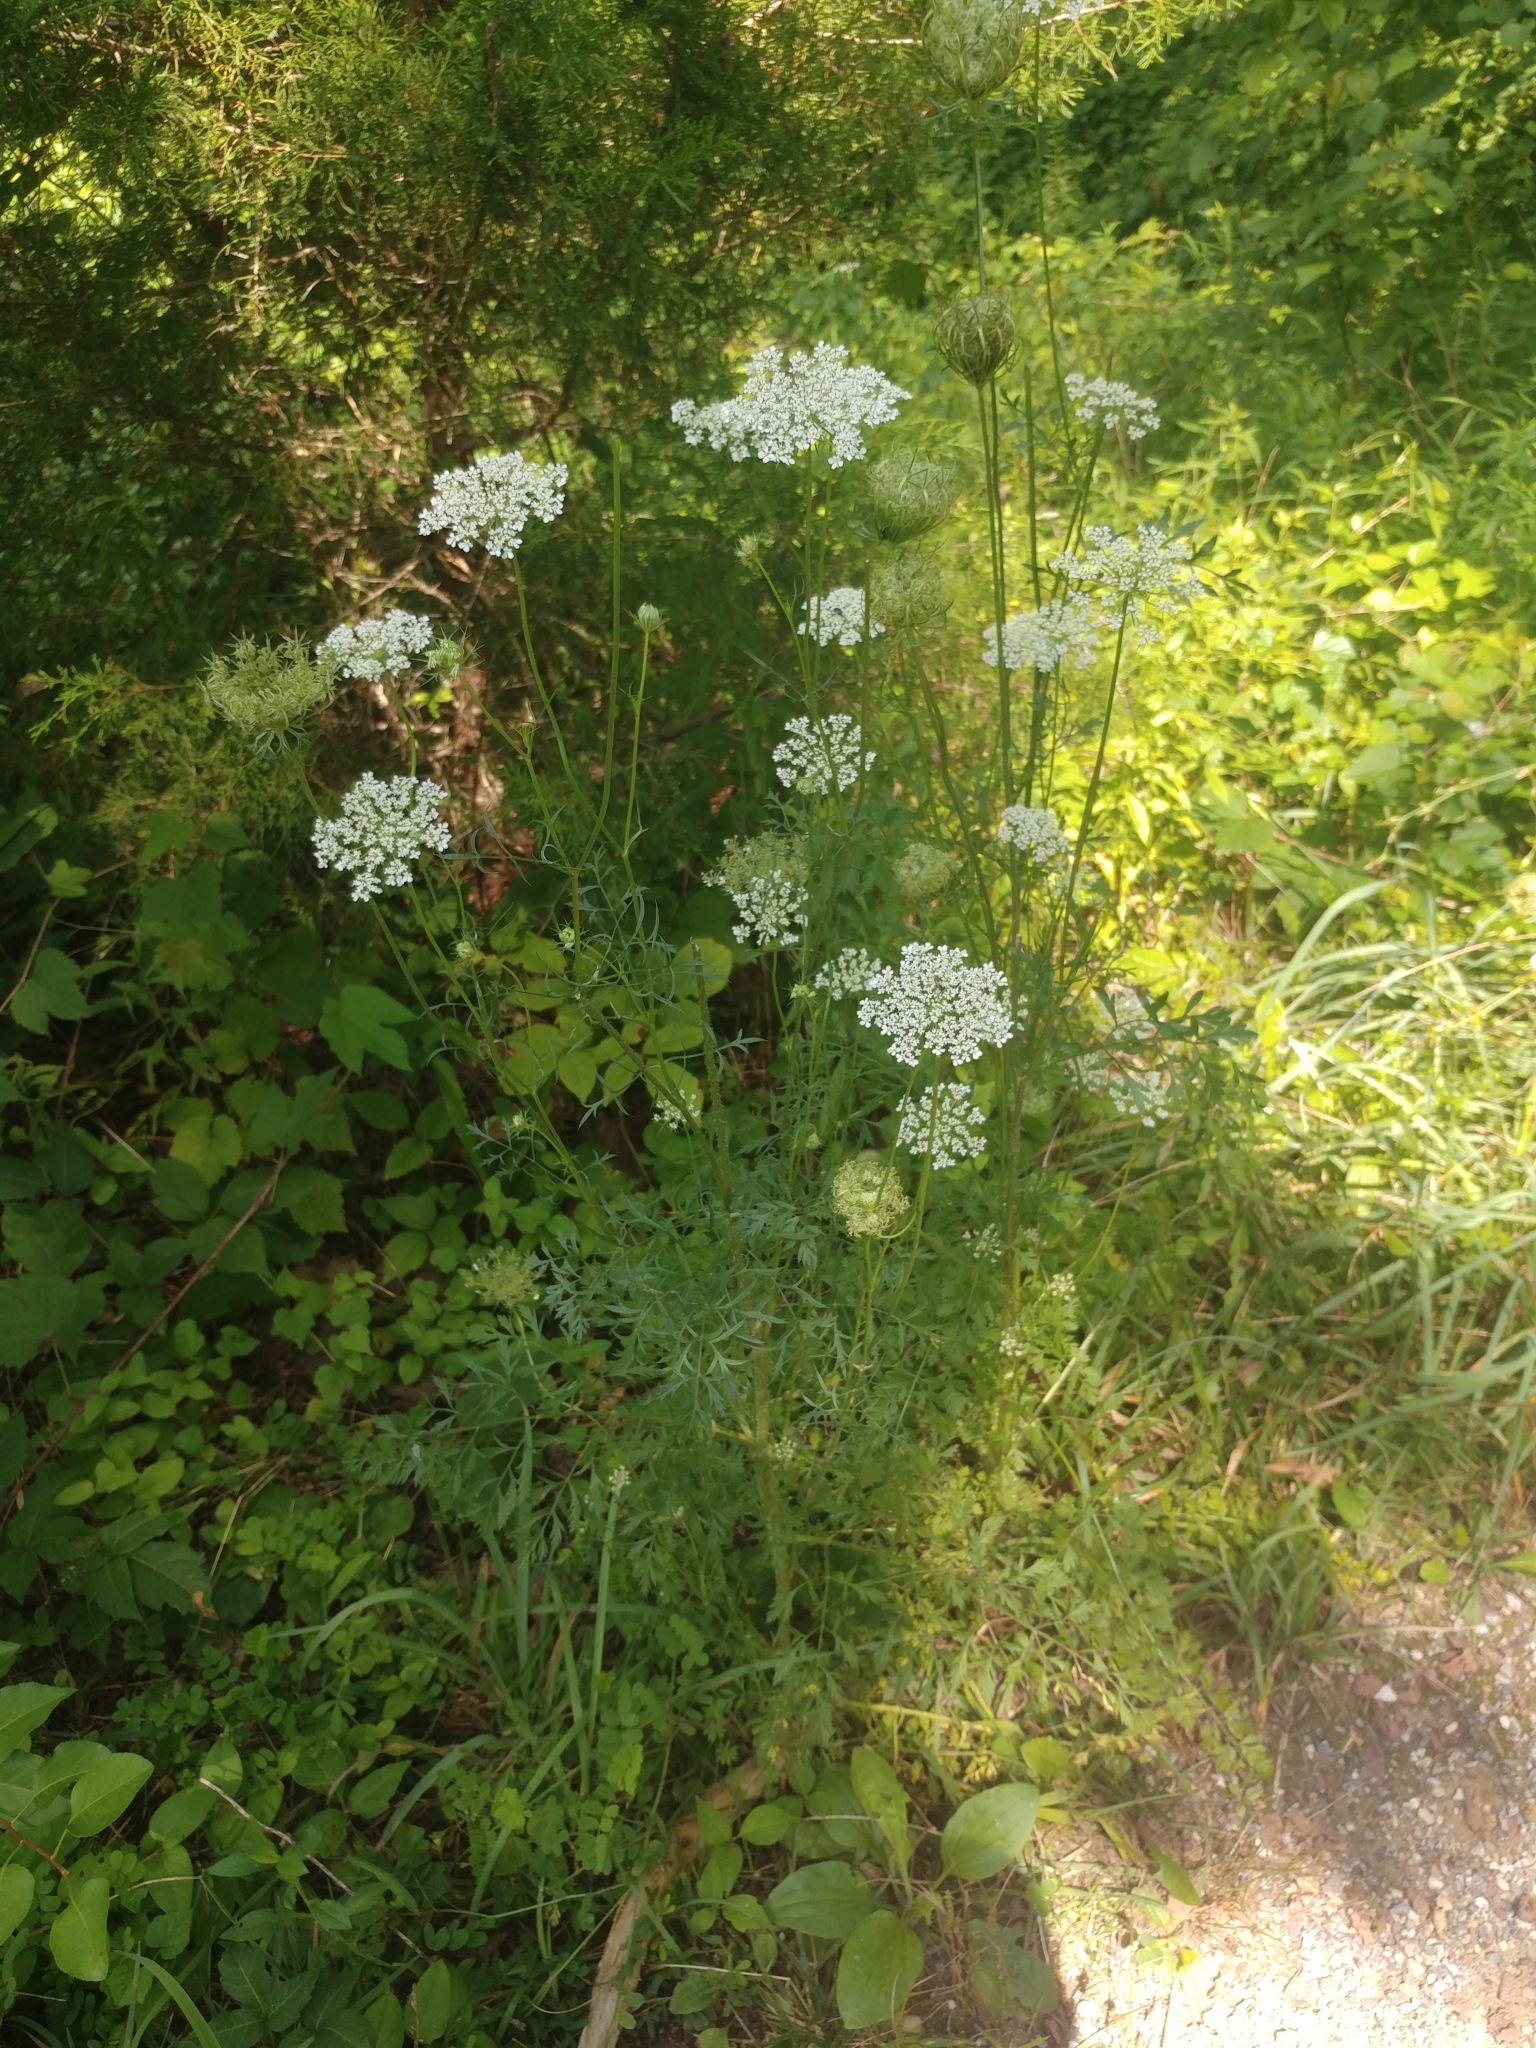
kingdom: Plantae
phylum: Tracheophyta
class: Magnoliopsida
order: Apiales
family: Apiaceae
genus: Daucus
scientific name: Daucus carota
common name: Wild carrot
